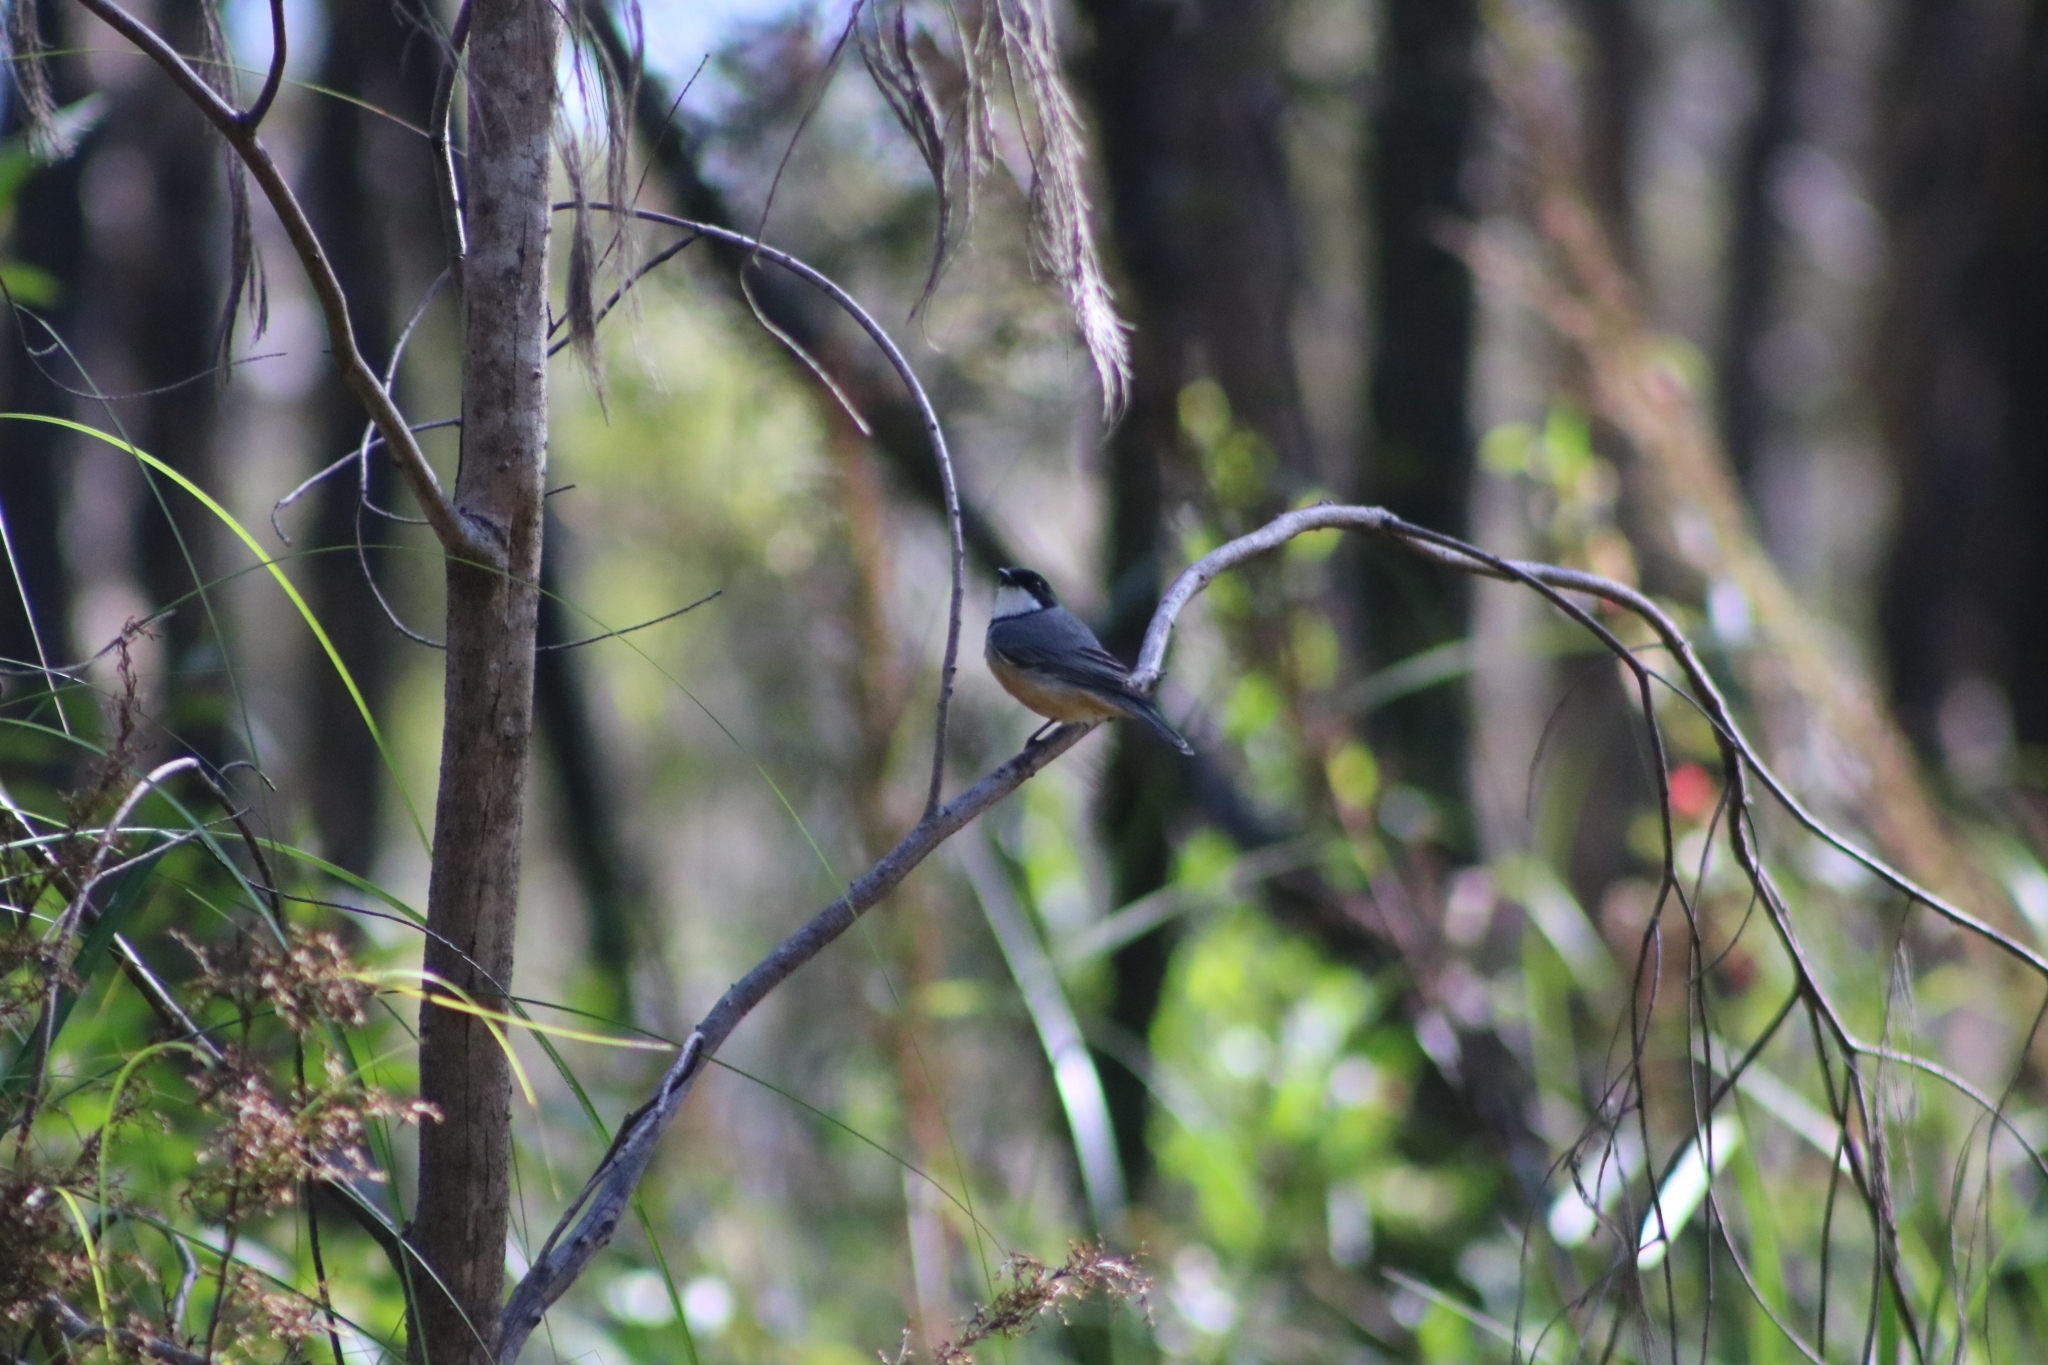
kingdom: Animalia
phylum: Chordata
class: Aves
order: Passeriformes
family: Pachycephalidae
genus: Pachycephala
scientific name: Pachycephala rufiventris
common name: Rufous whistler
